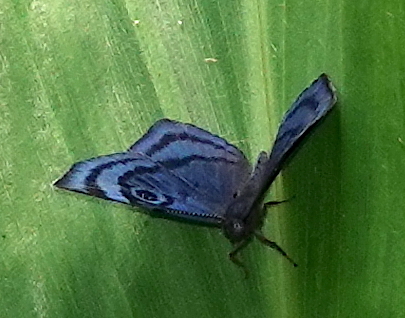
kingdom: Animalia
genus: Mesosemia
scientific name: Mesosemia metuana
